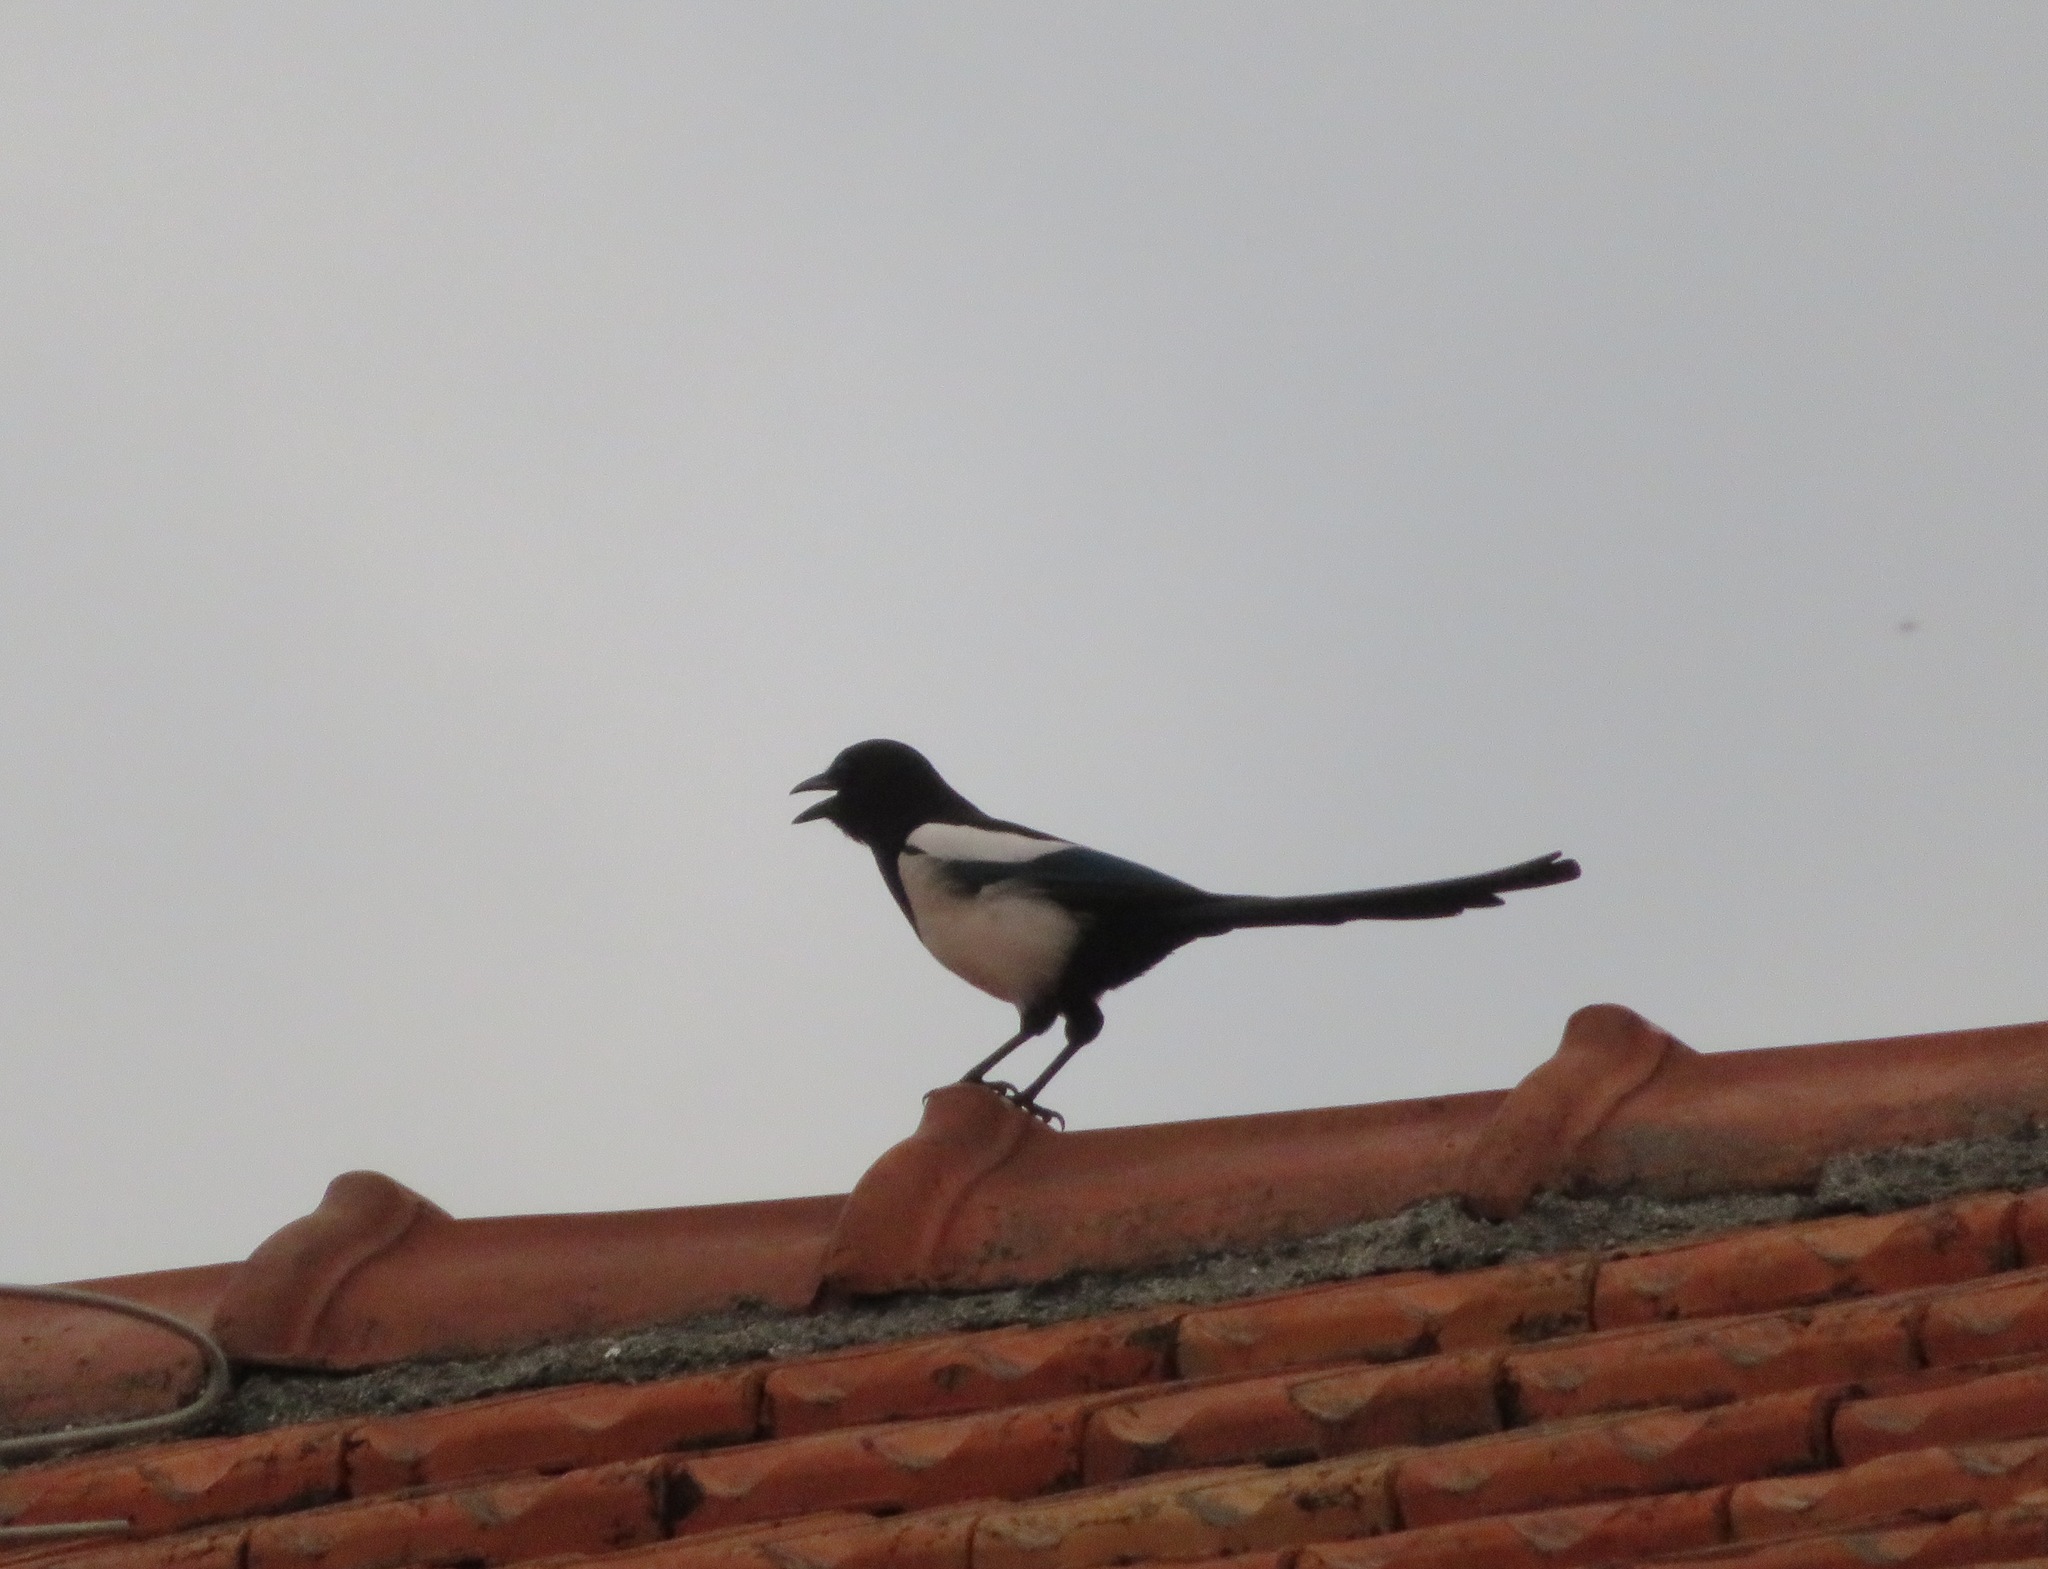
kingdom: Animalia
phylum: Chordata
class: Aves
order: Passeriformes
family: Corvidae
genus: Pica
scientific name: Pica pica
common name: Eurasian magpie
